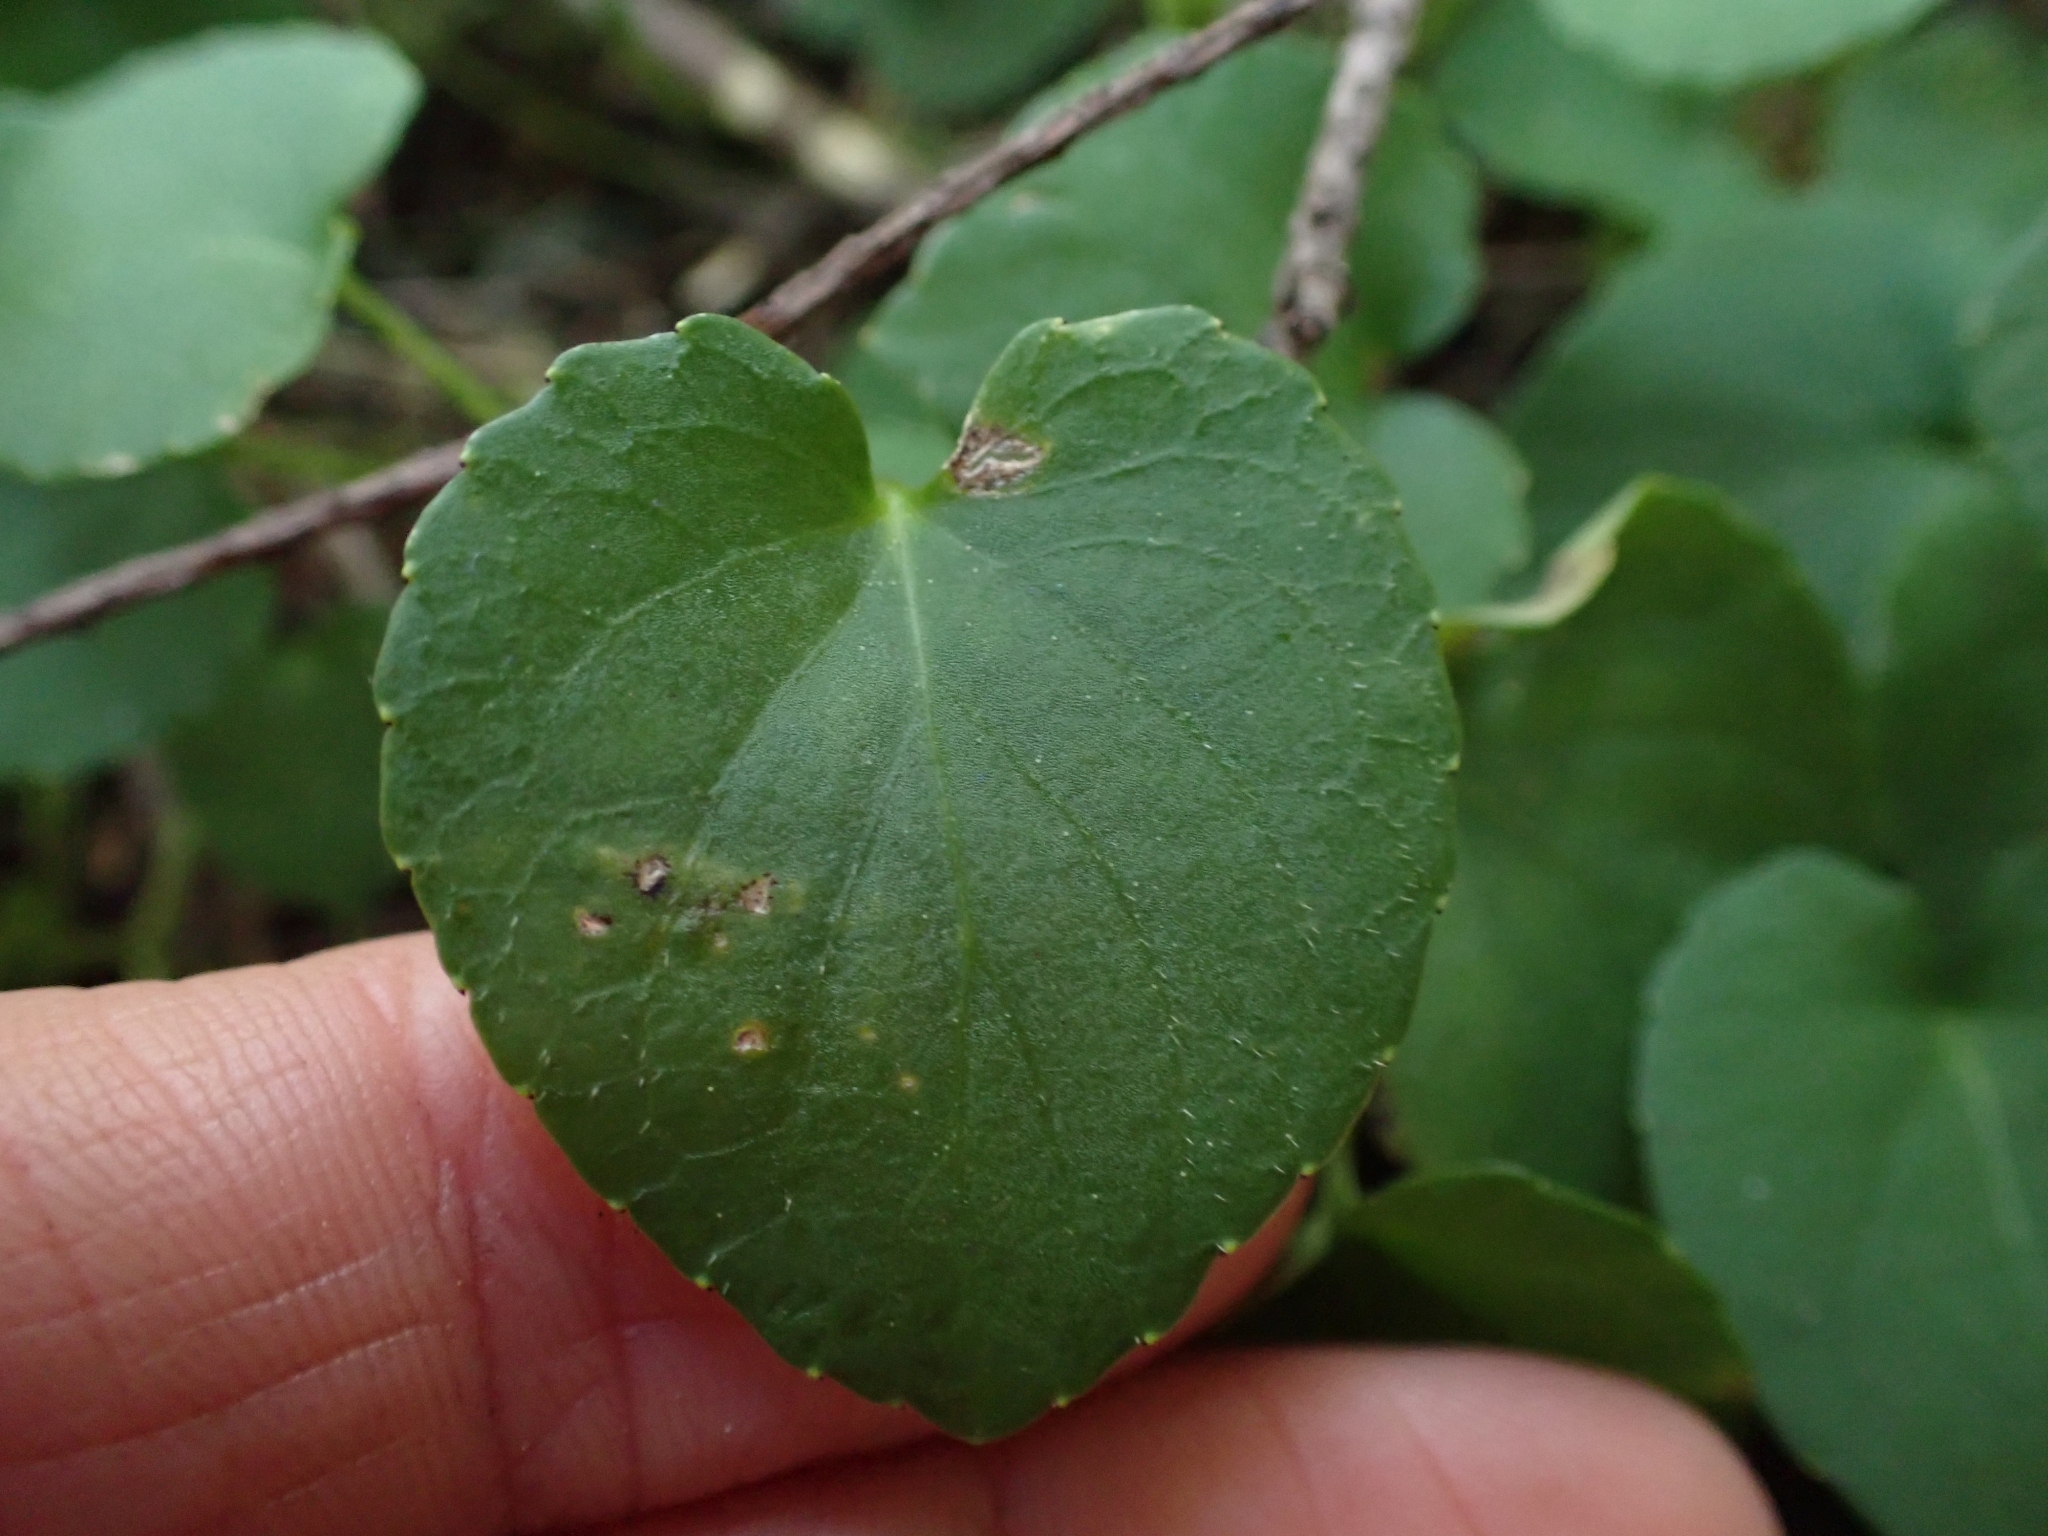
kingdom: Plantae
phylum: Tracheophyta
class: Magnoliopsida
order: Malpighiales
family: Violaceae
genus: Viola
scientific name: Viola sempervirens
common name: Evergreen violet
